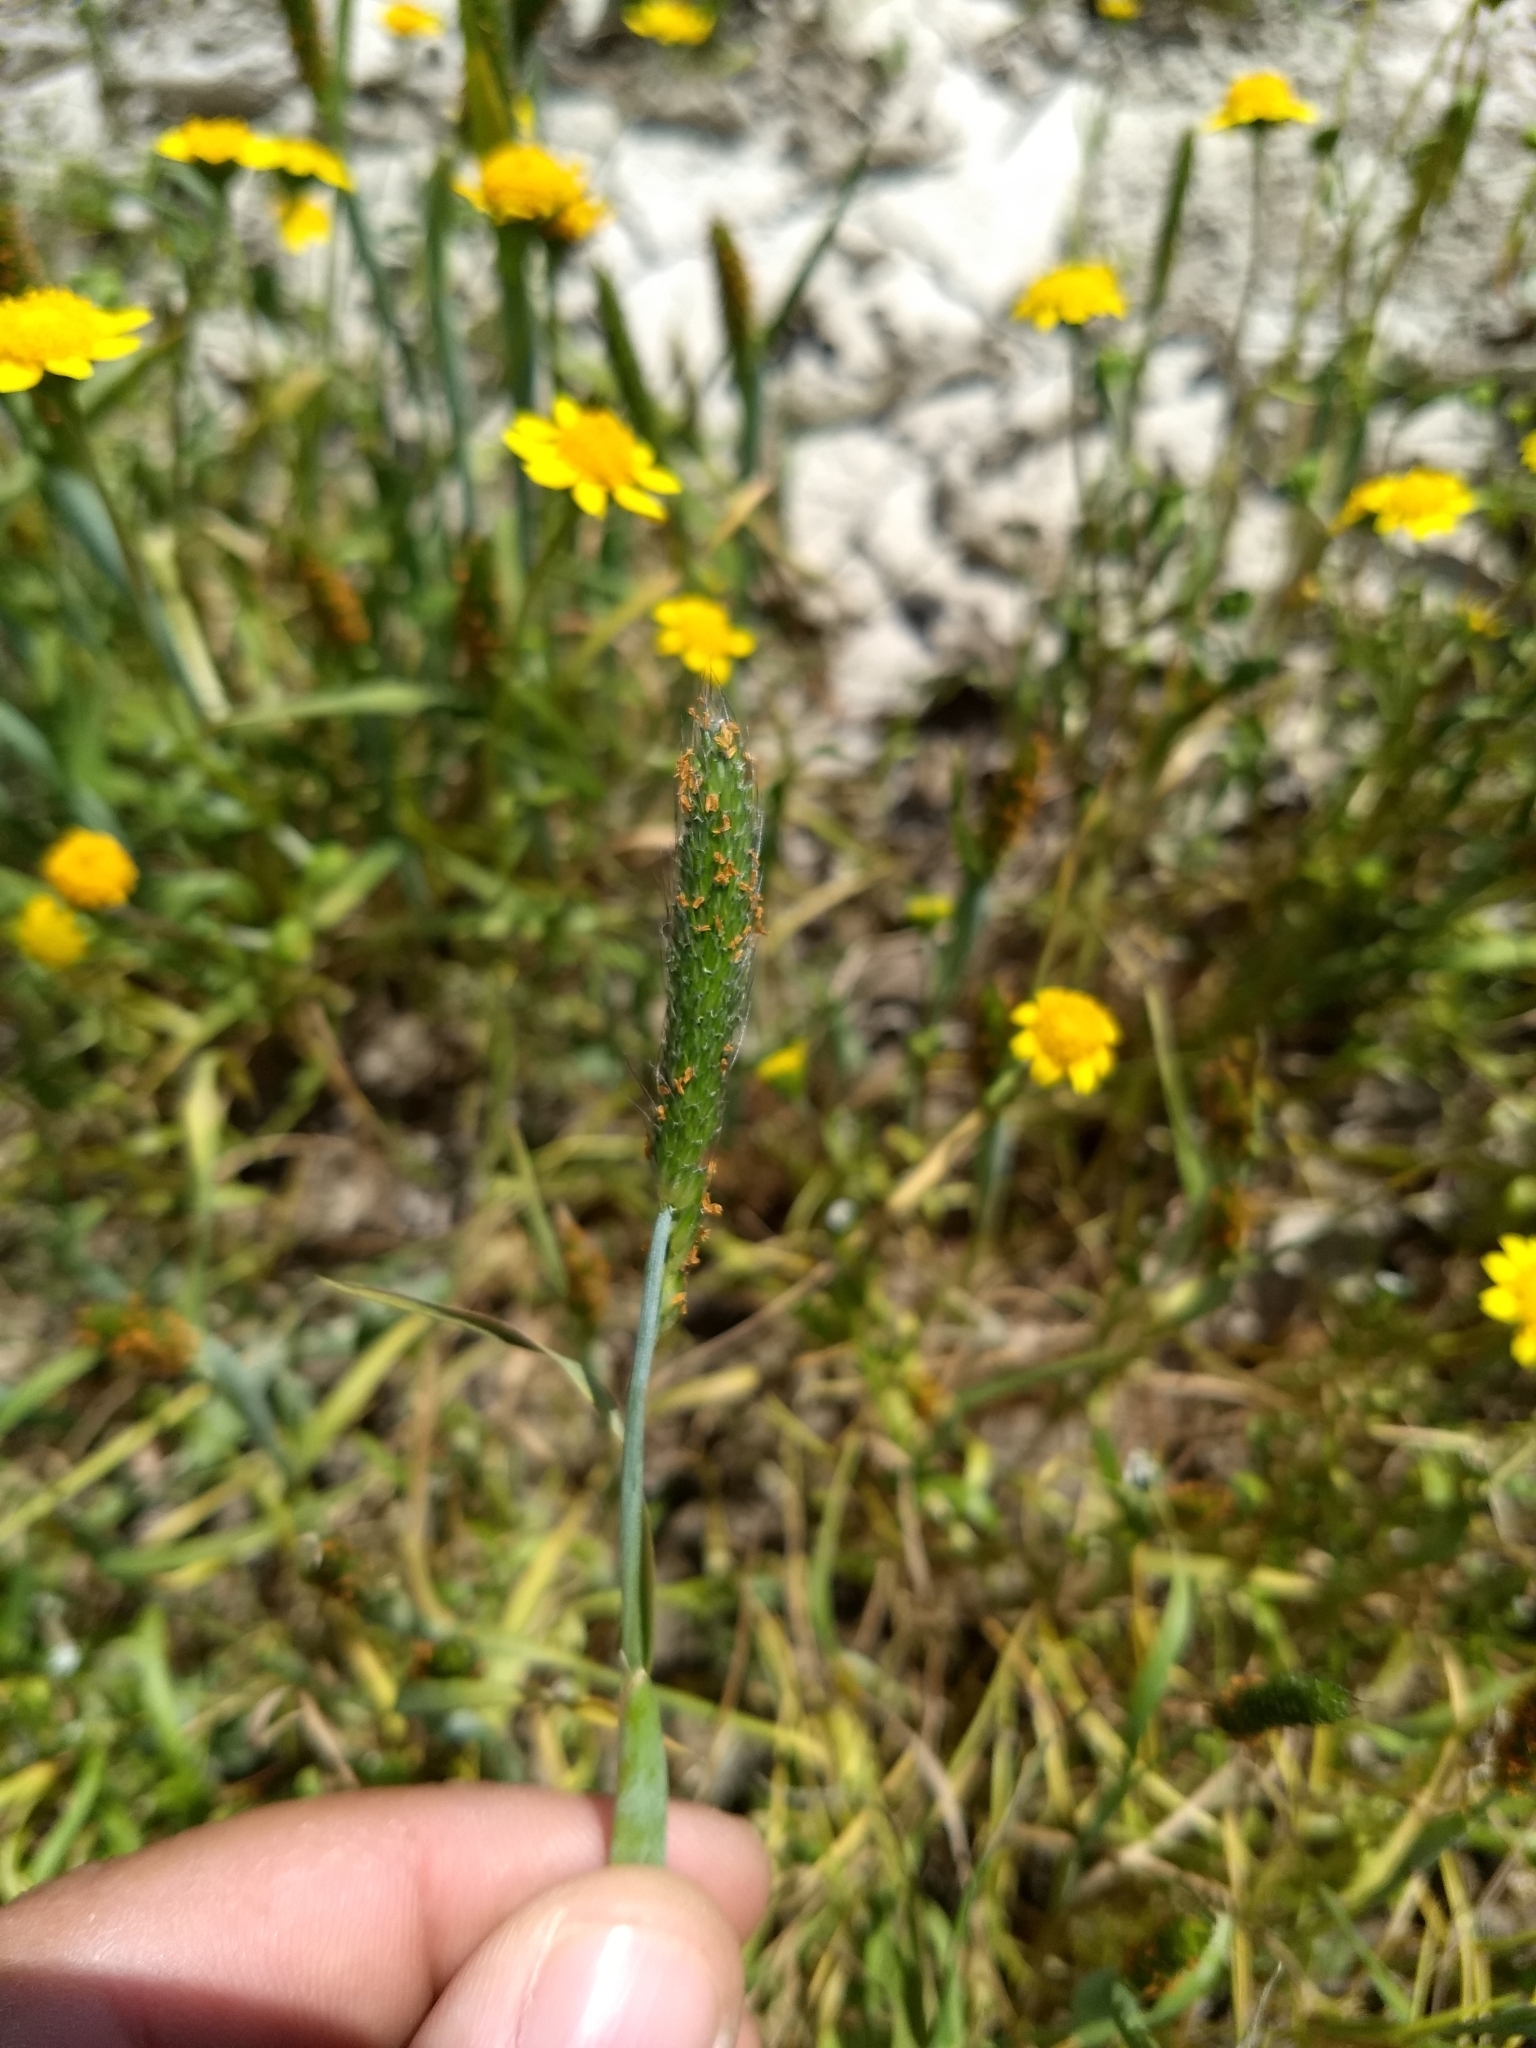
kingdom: Plantae
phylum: Tracheophyta
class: Liliopsida
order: Poales
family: Poaceae
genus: Alopecurus
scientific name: Alopecurus saccatus
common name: Pacific foxtail
